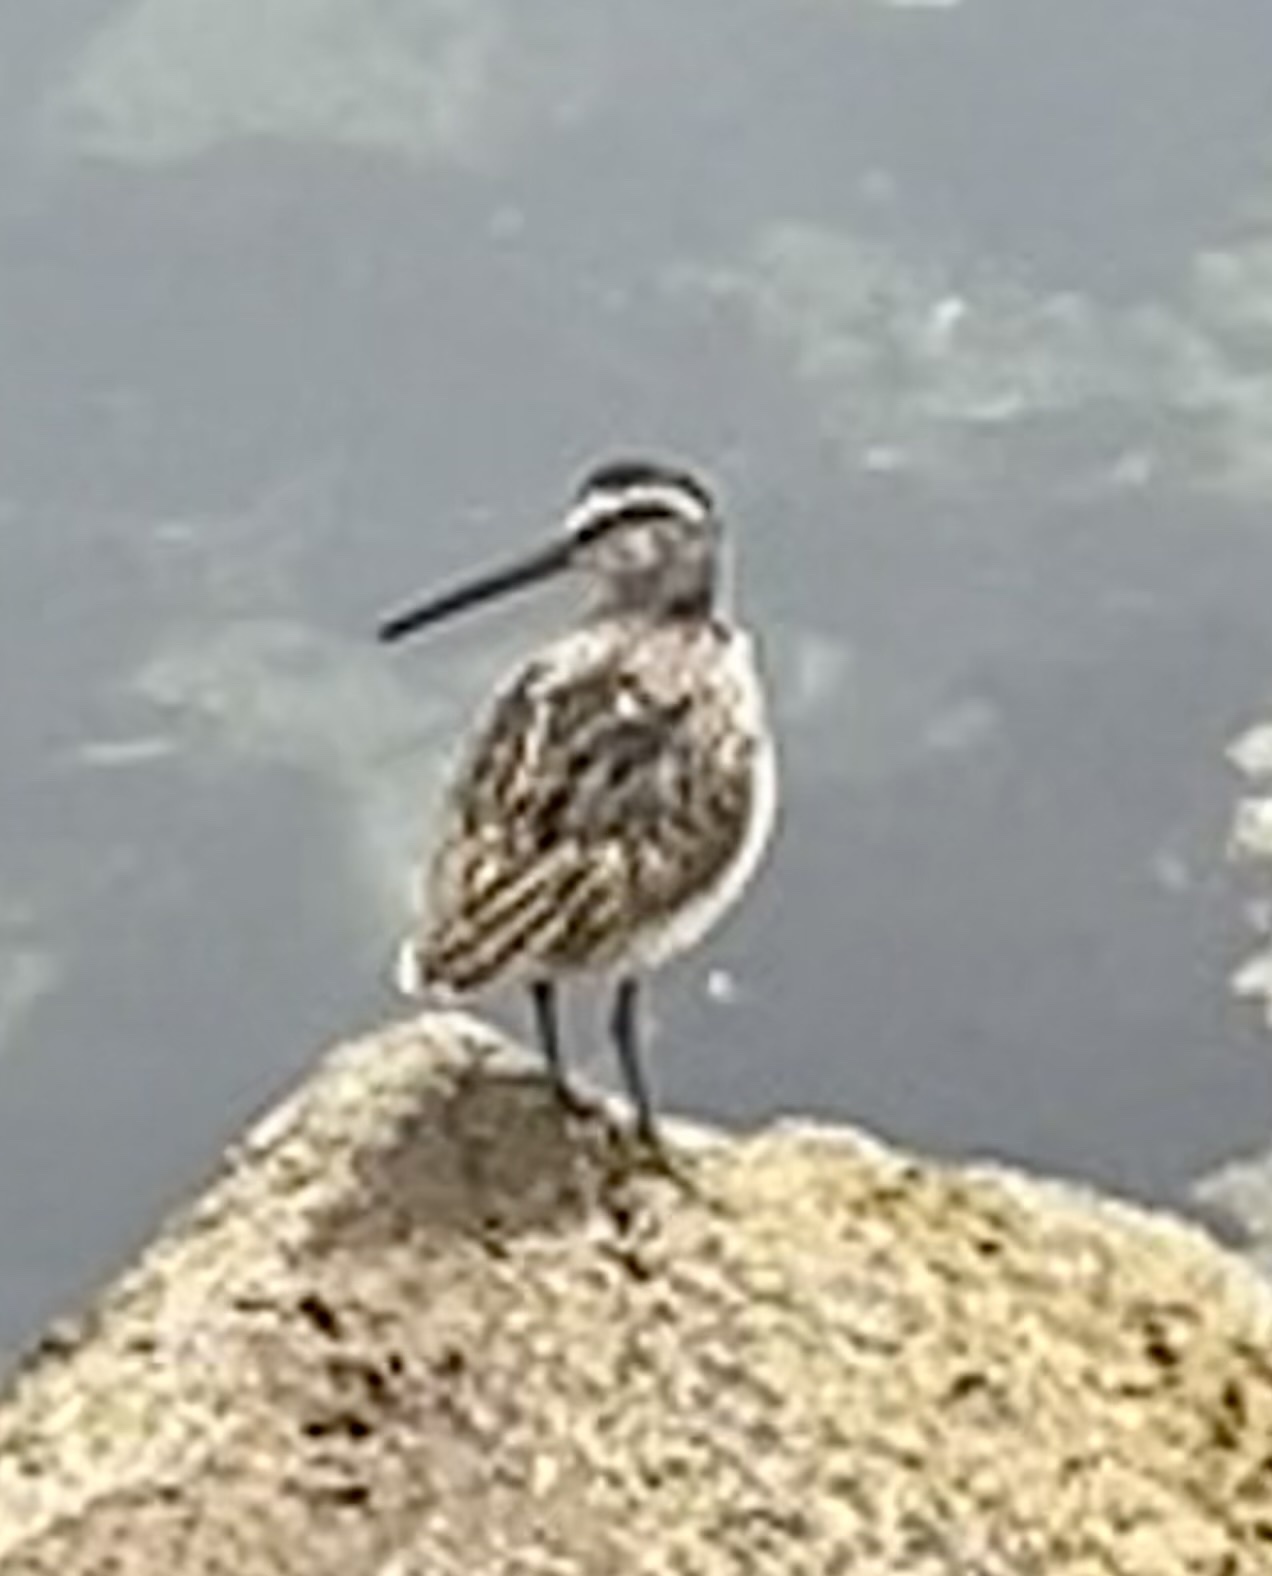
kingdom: Animalia
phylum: Chordata
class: Aves
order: Charadriiformes
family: Scolopacidae
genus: Limnodromus
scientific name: Limnodromus griseus
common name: Short-billed dowitcher
